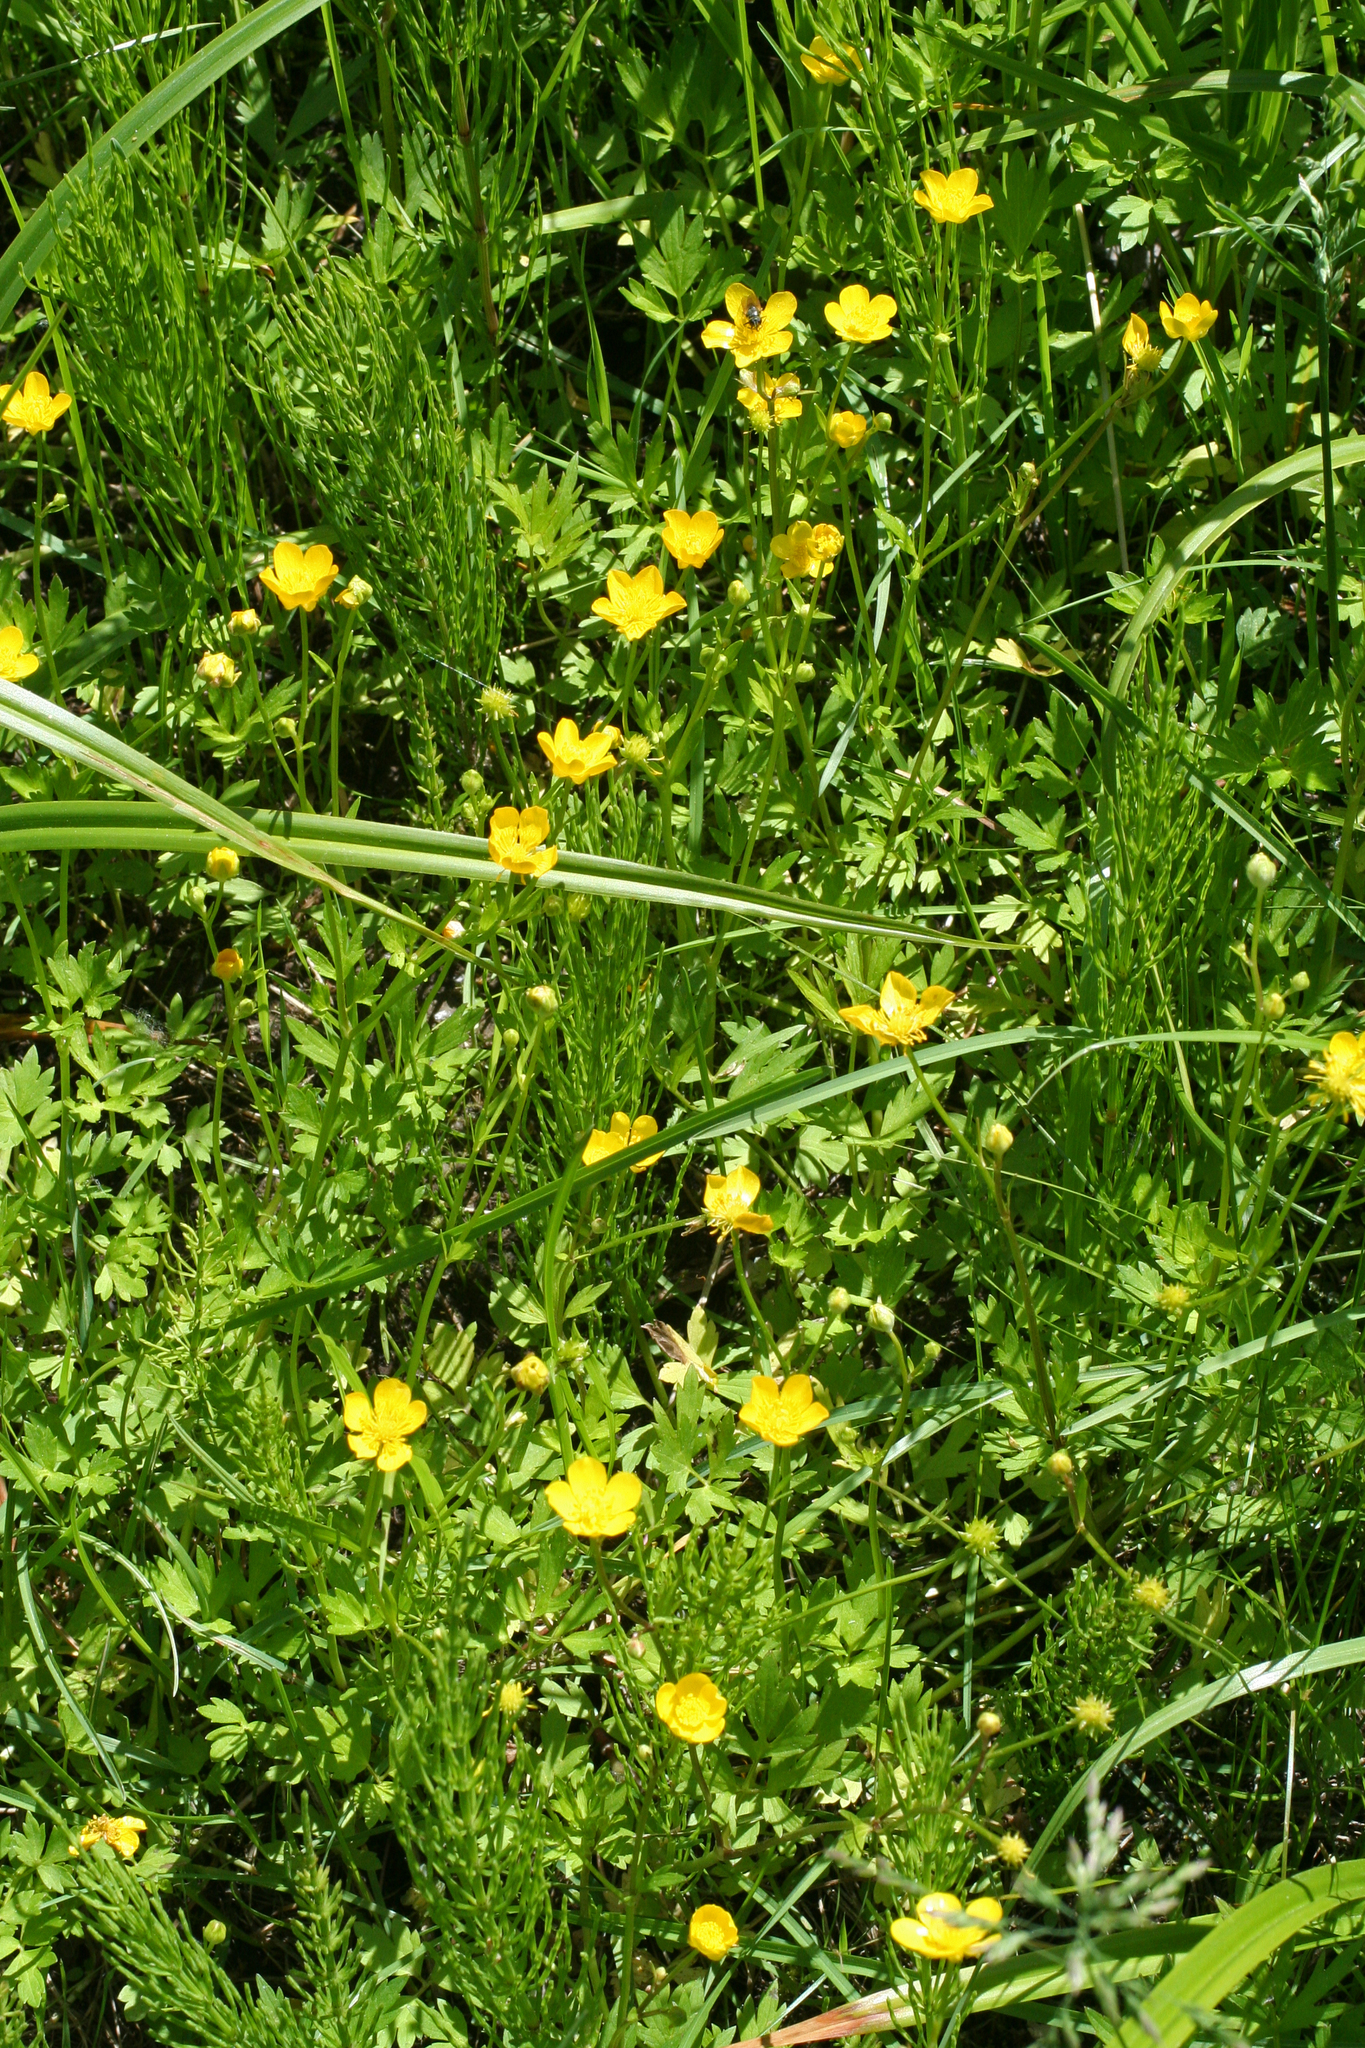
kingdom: Plantae
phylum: Tracheophyta
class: Magnoliopsida
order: Ranunculales
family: Ranunculaceae
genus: Ranunculus
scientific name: Ranunculus repens
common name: Creeping buttercup
